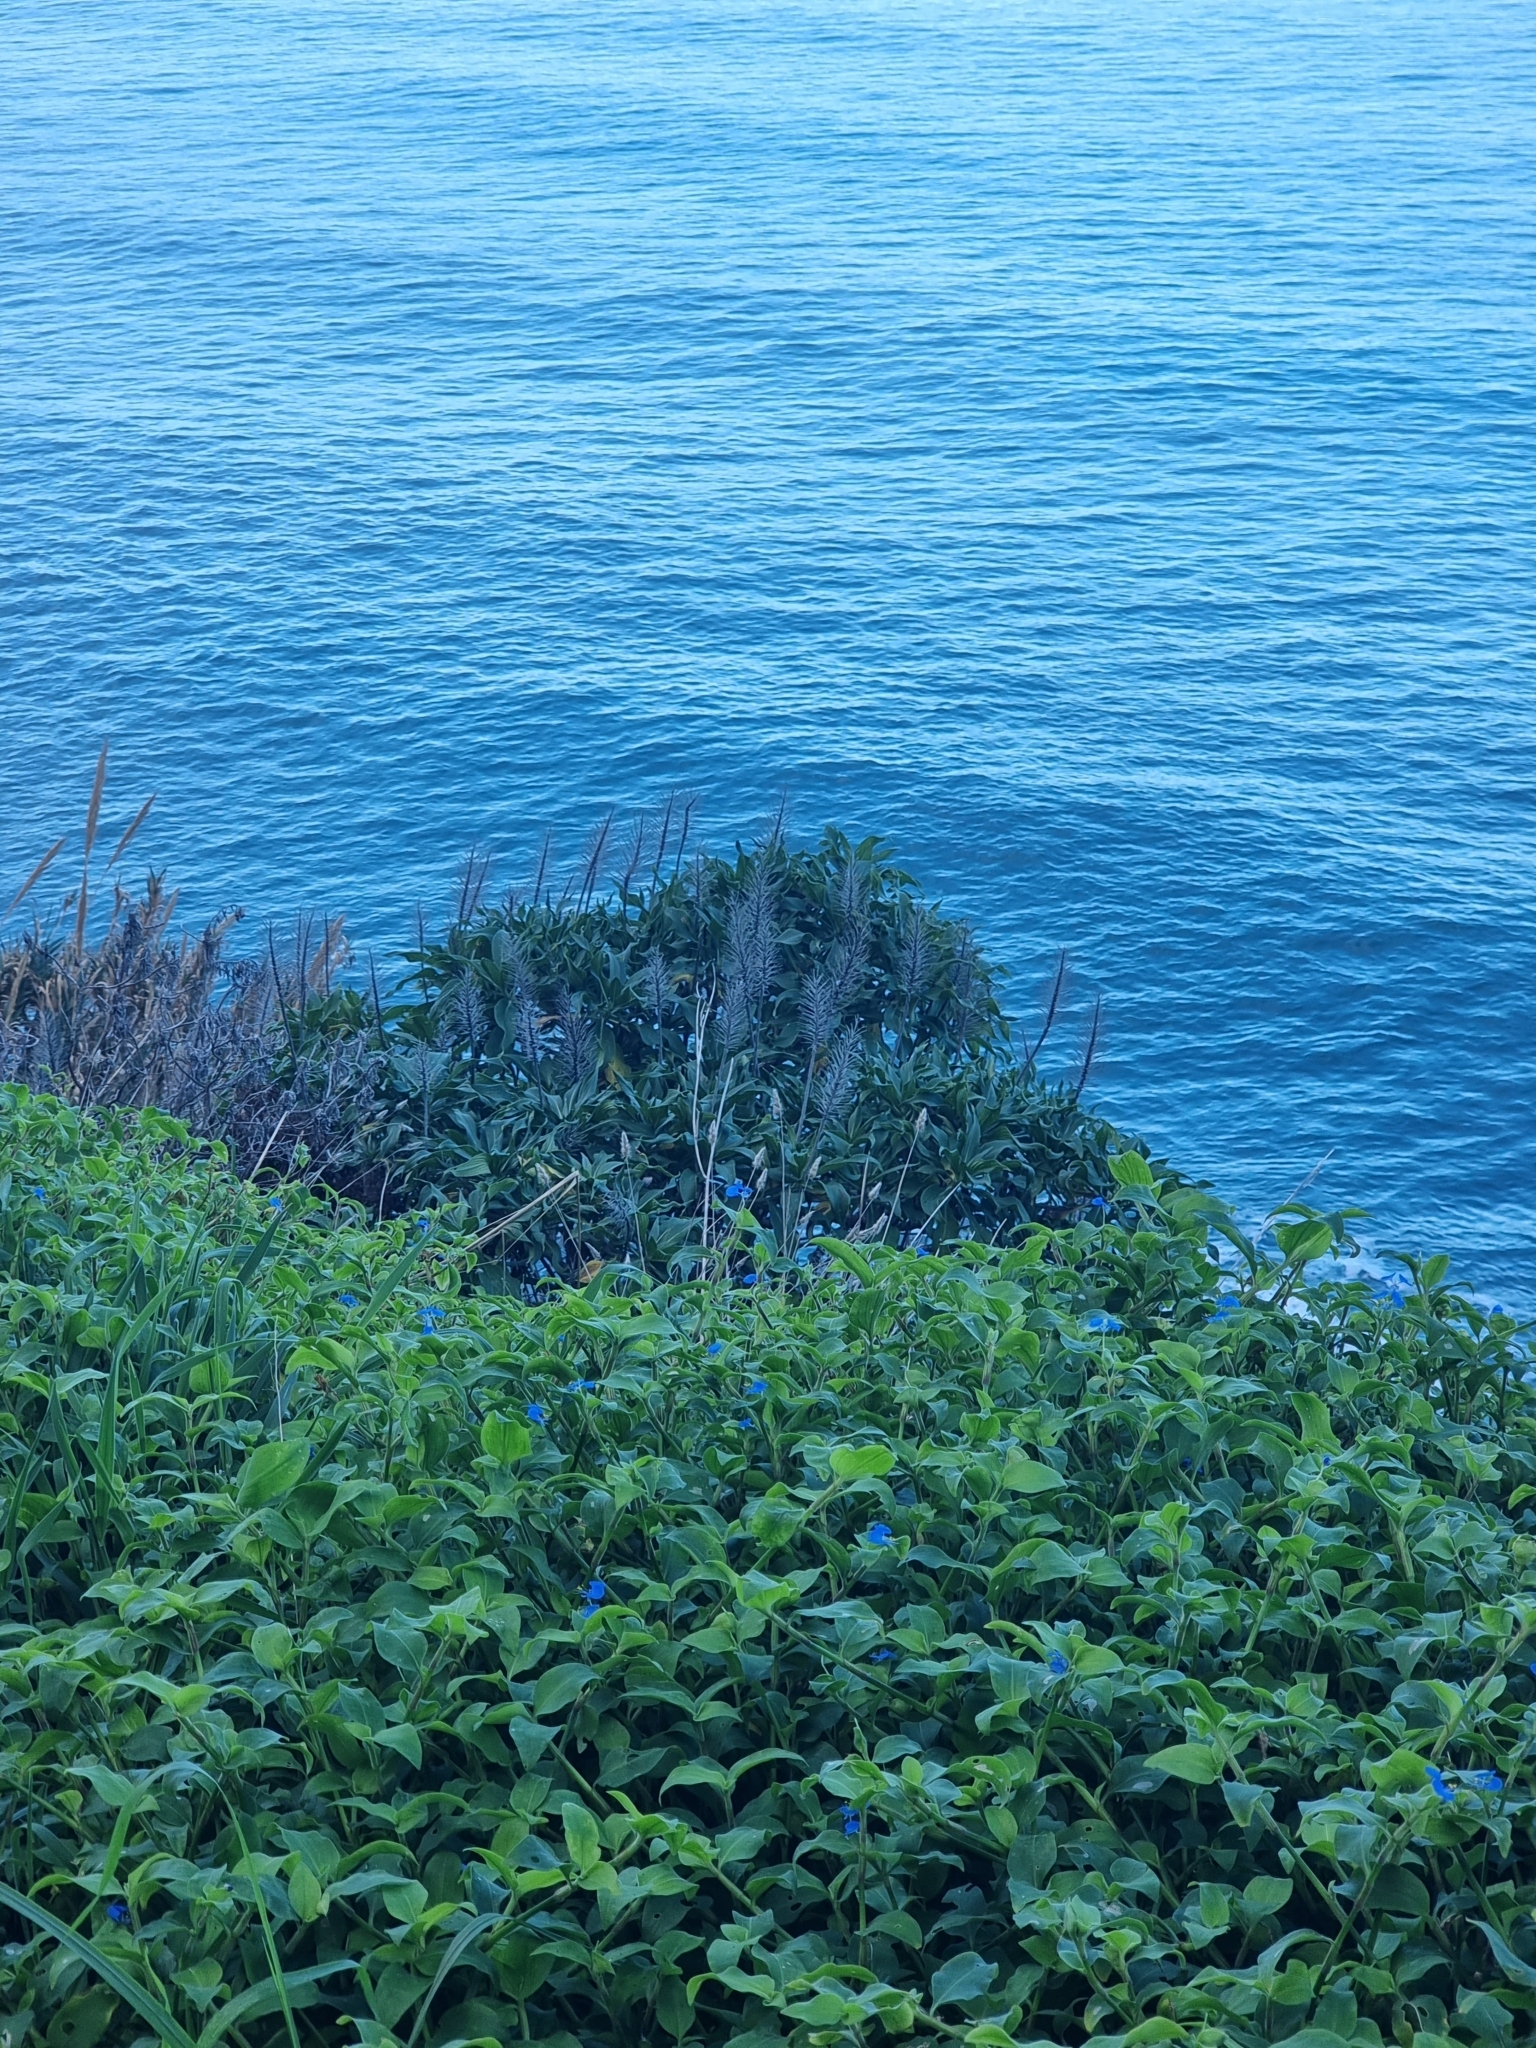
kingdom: Plantae
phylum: Tracheophyta
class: Magnoliopsida
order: Boraginales
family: Boraginaceae
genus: Echium
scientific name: Echium nervosum
